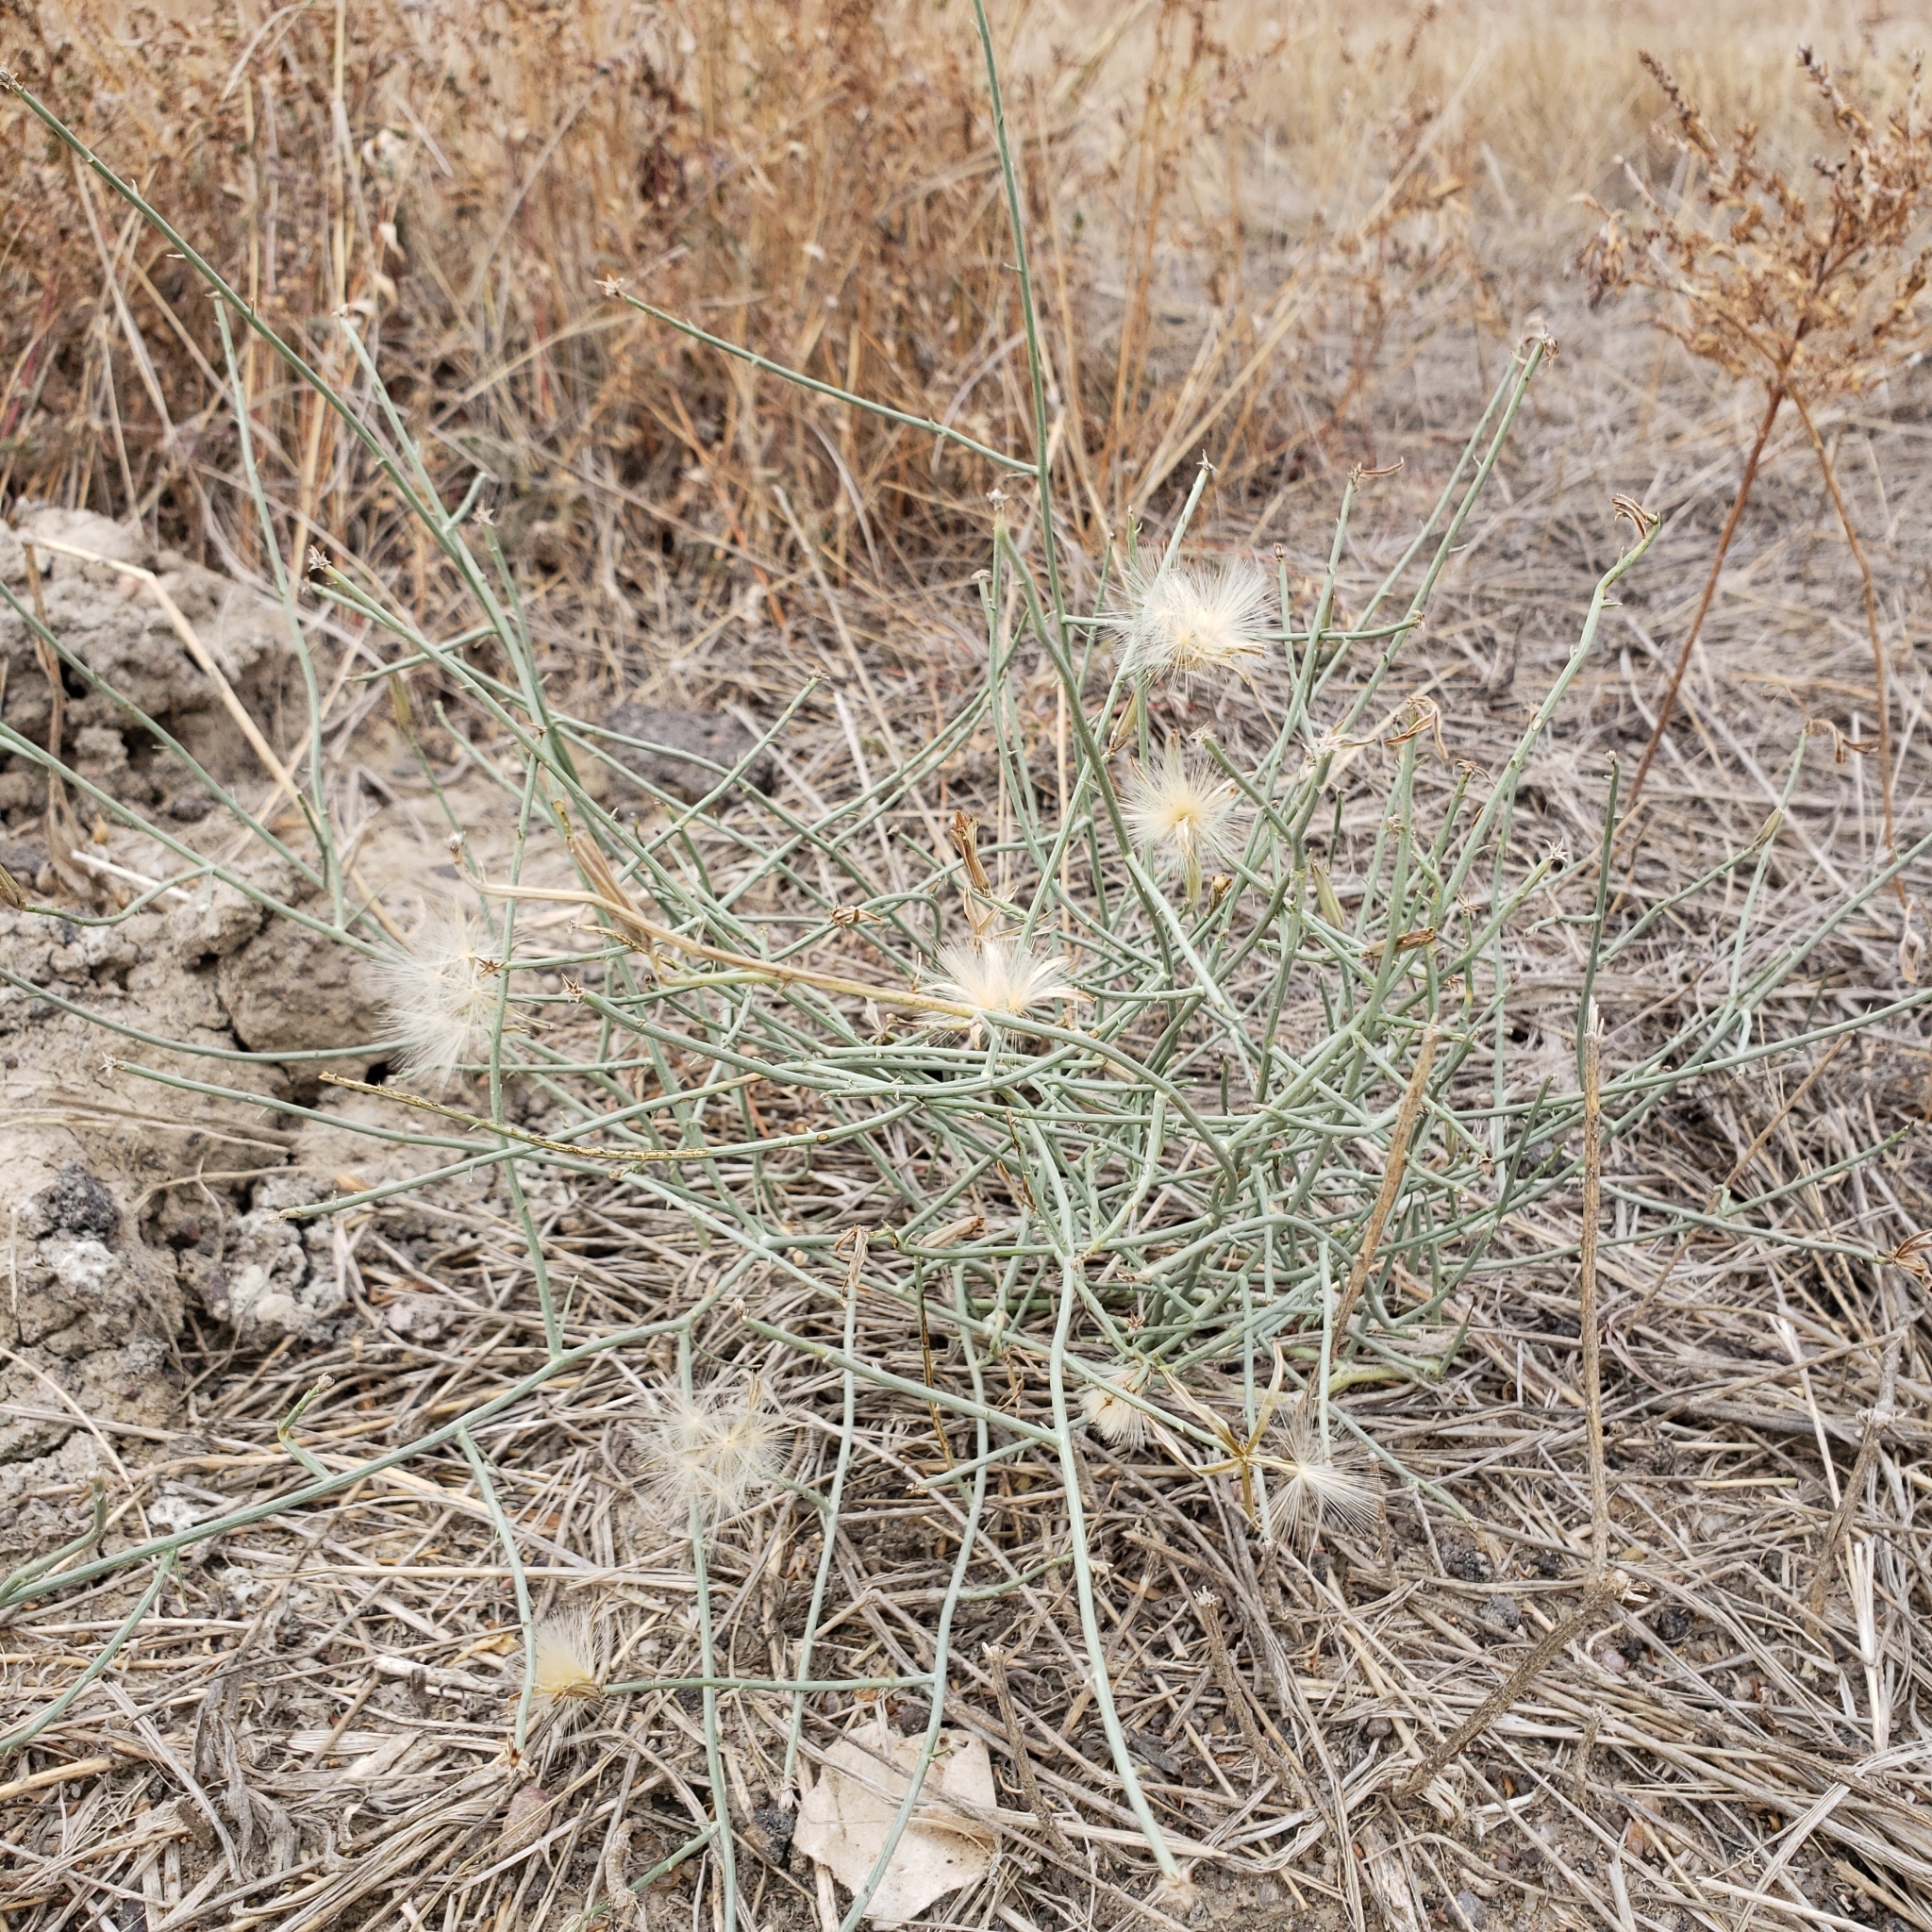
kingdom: Plantae
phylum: Tracheophyta
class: Magnoliopsida
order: Asterales
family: Asteraceae
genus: Lygodesmia
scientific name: Lygodesmia juncea
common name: Common skeletonweed
